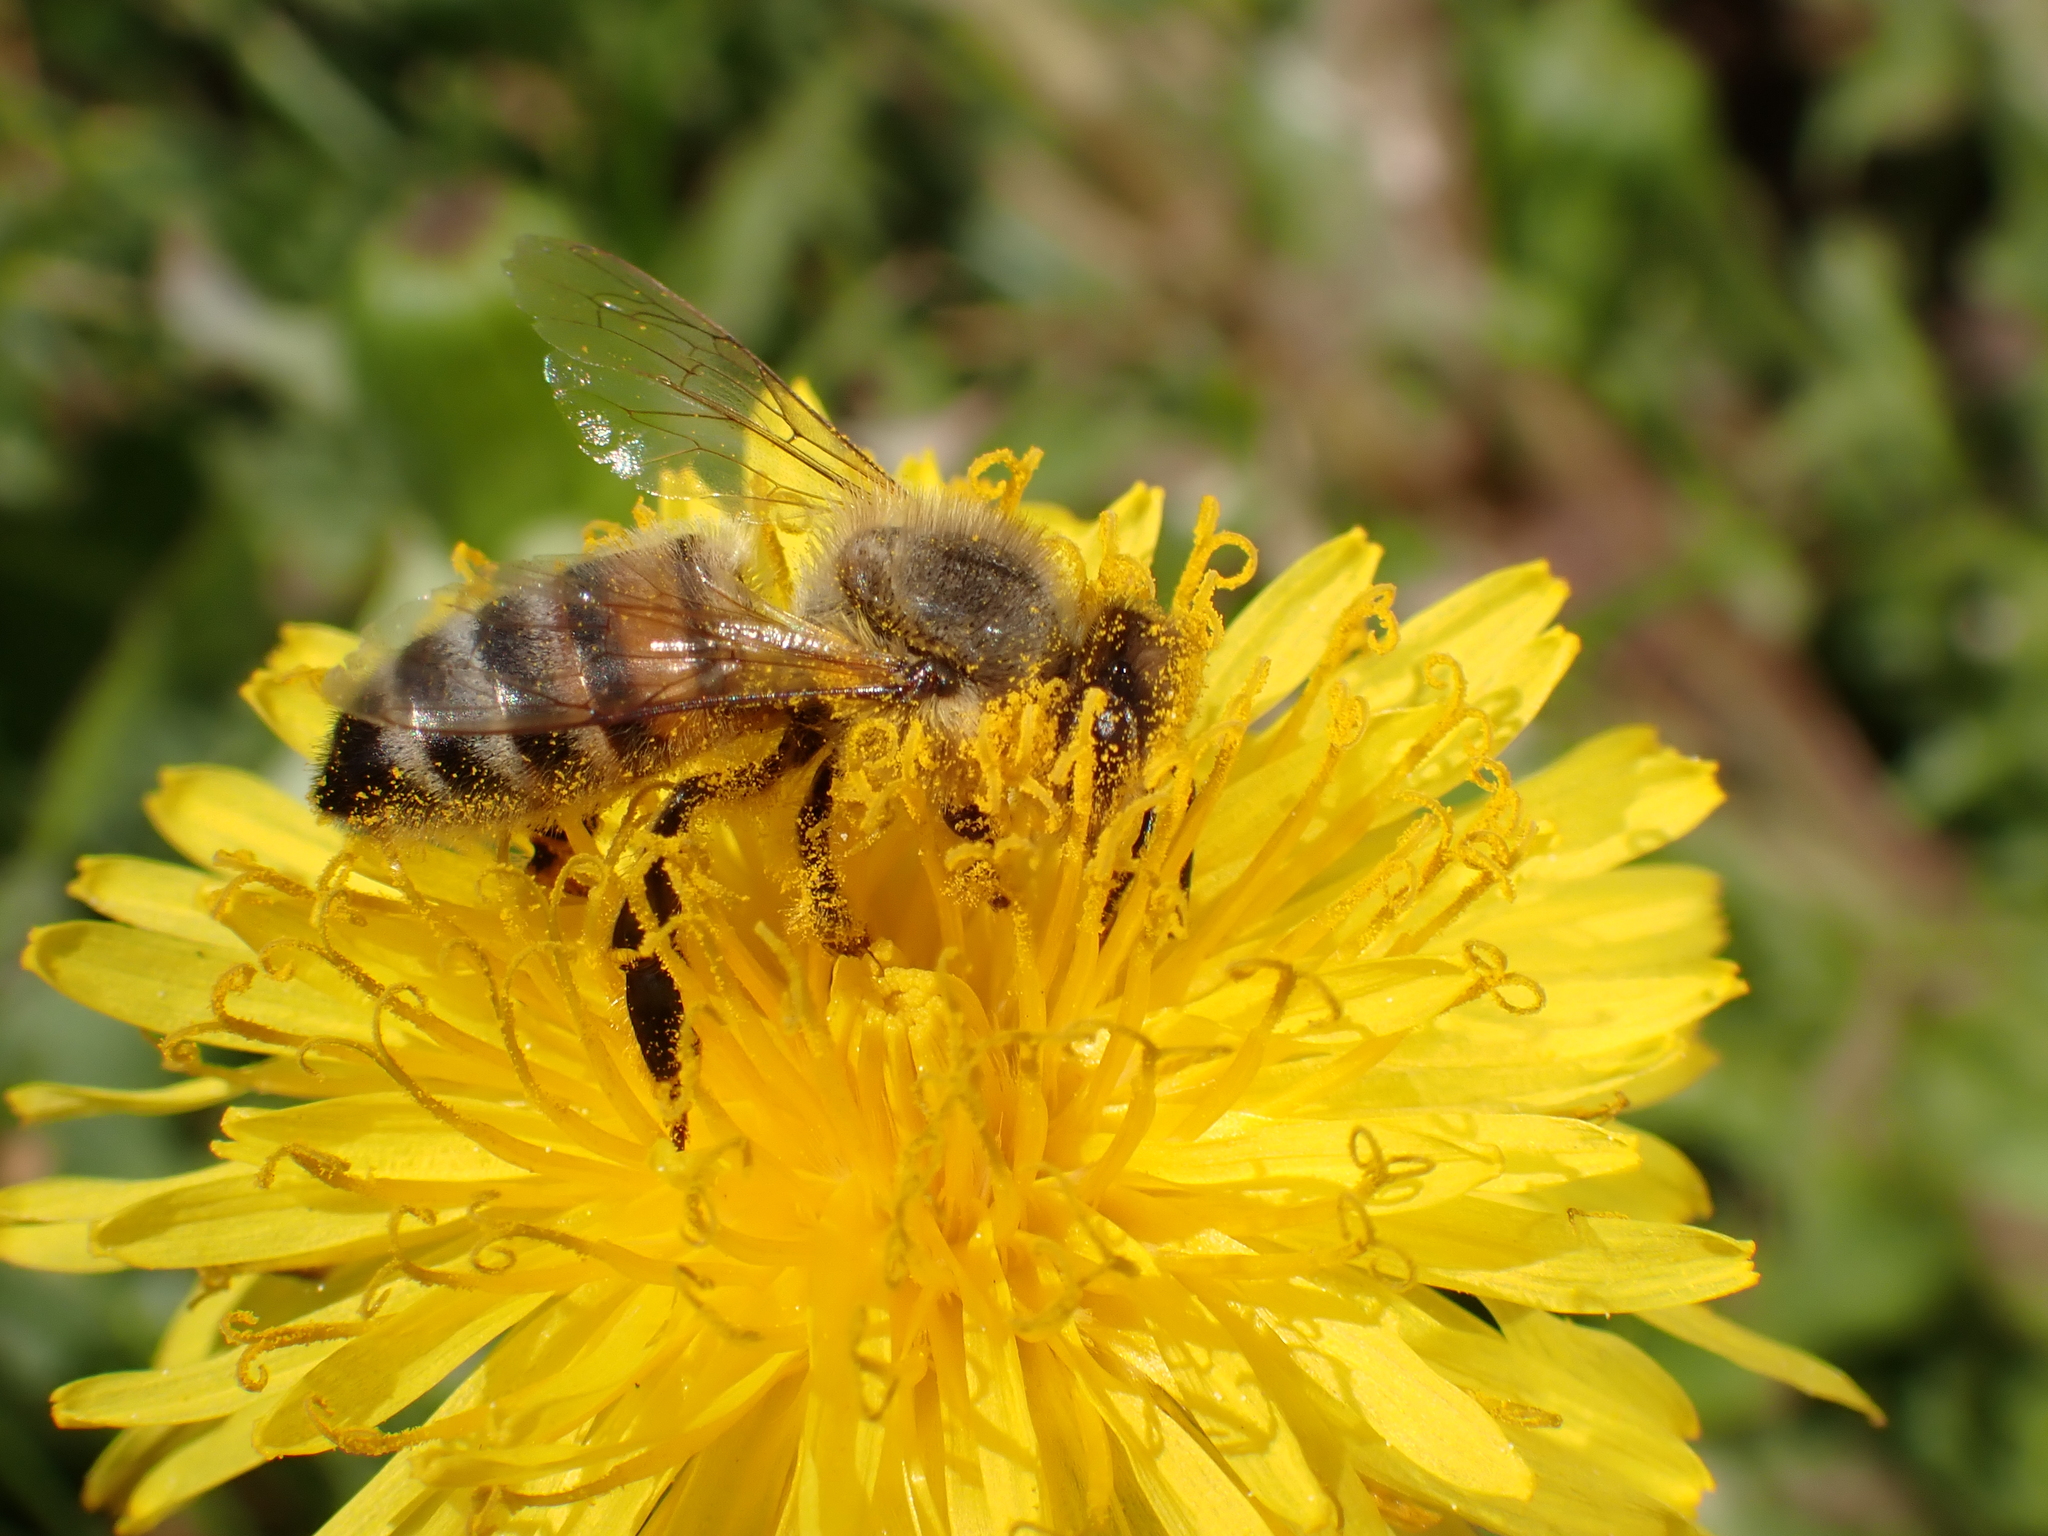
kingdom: Animalia
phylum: Arthropoda
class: Insecta
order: Hymenoptera
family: Apidae
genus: Apis
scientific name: Apis mellifera
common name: Honey bee
